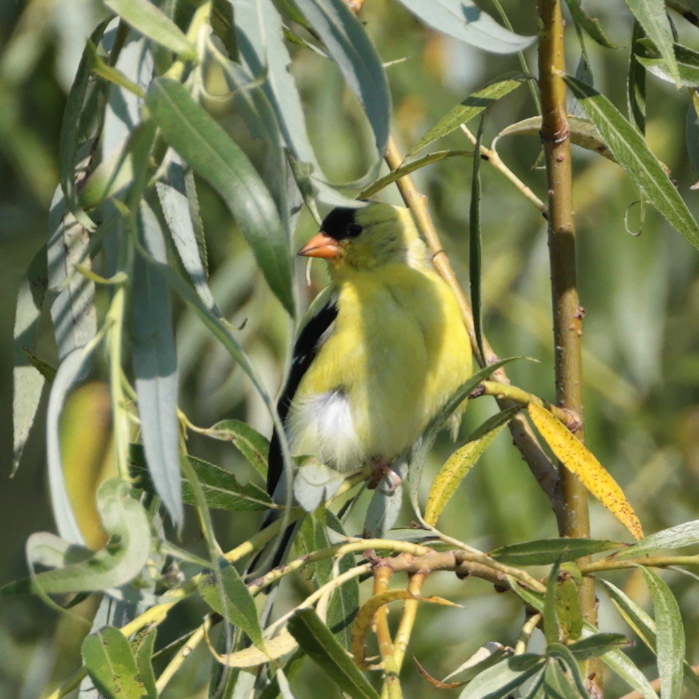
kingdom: Animalia
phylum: Chordata
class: Aves
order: Passeriformes
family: Fringillidae
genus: Spinus
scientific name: Spinus tristis
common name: American goldfinch
